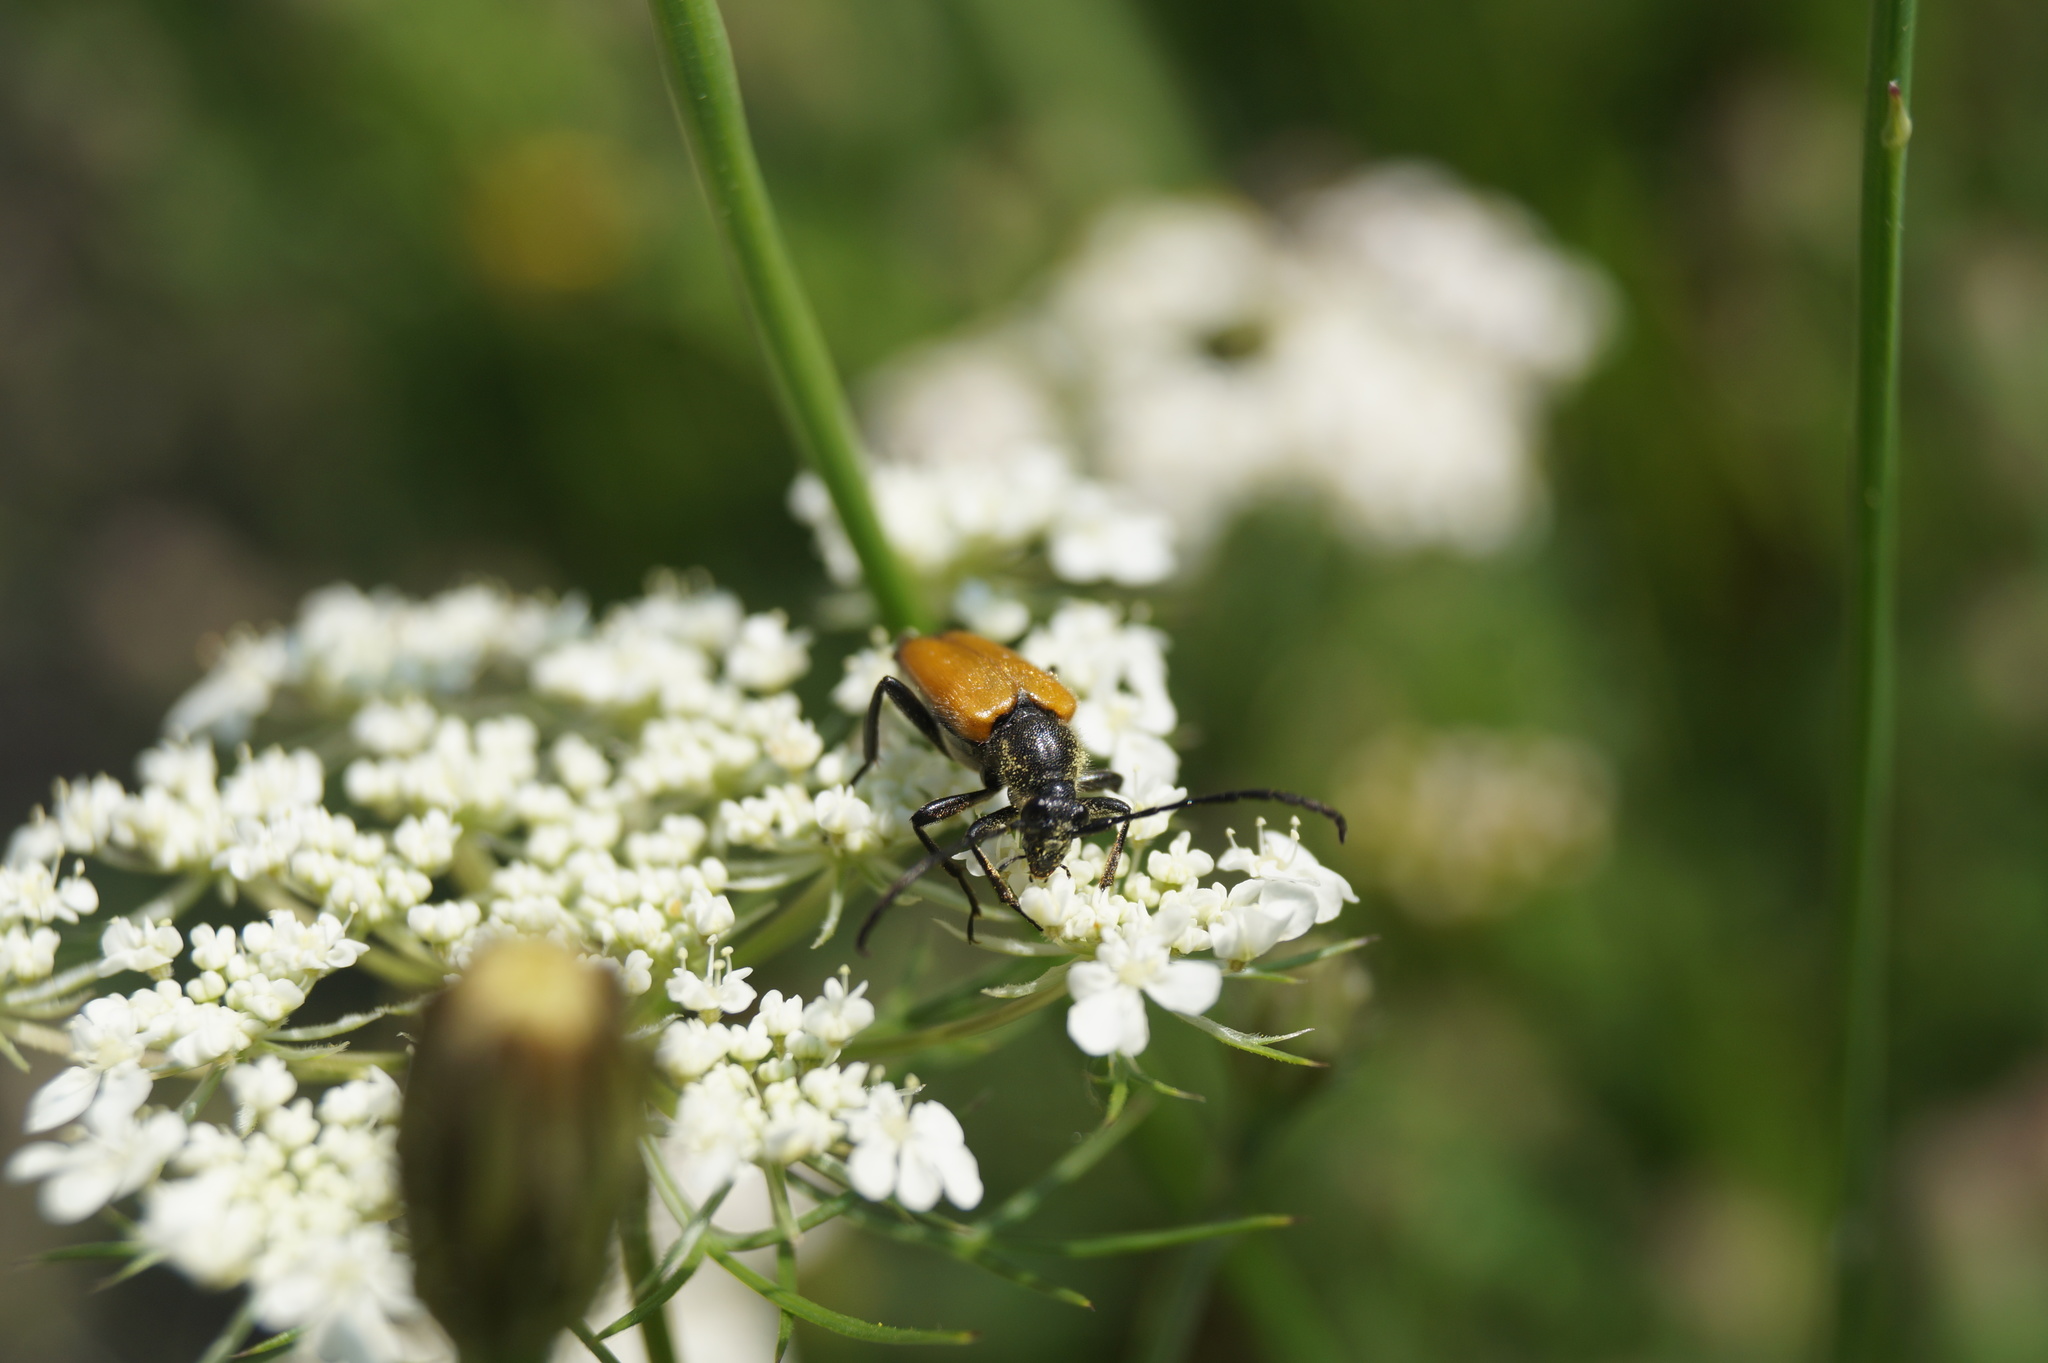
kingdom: Animalia
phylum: Arthropoda
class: Insecta
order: Coleoptera
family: Cerambycidae
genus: Paracorymbia
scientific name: Paracorymbia fulva
